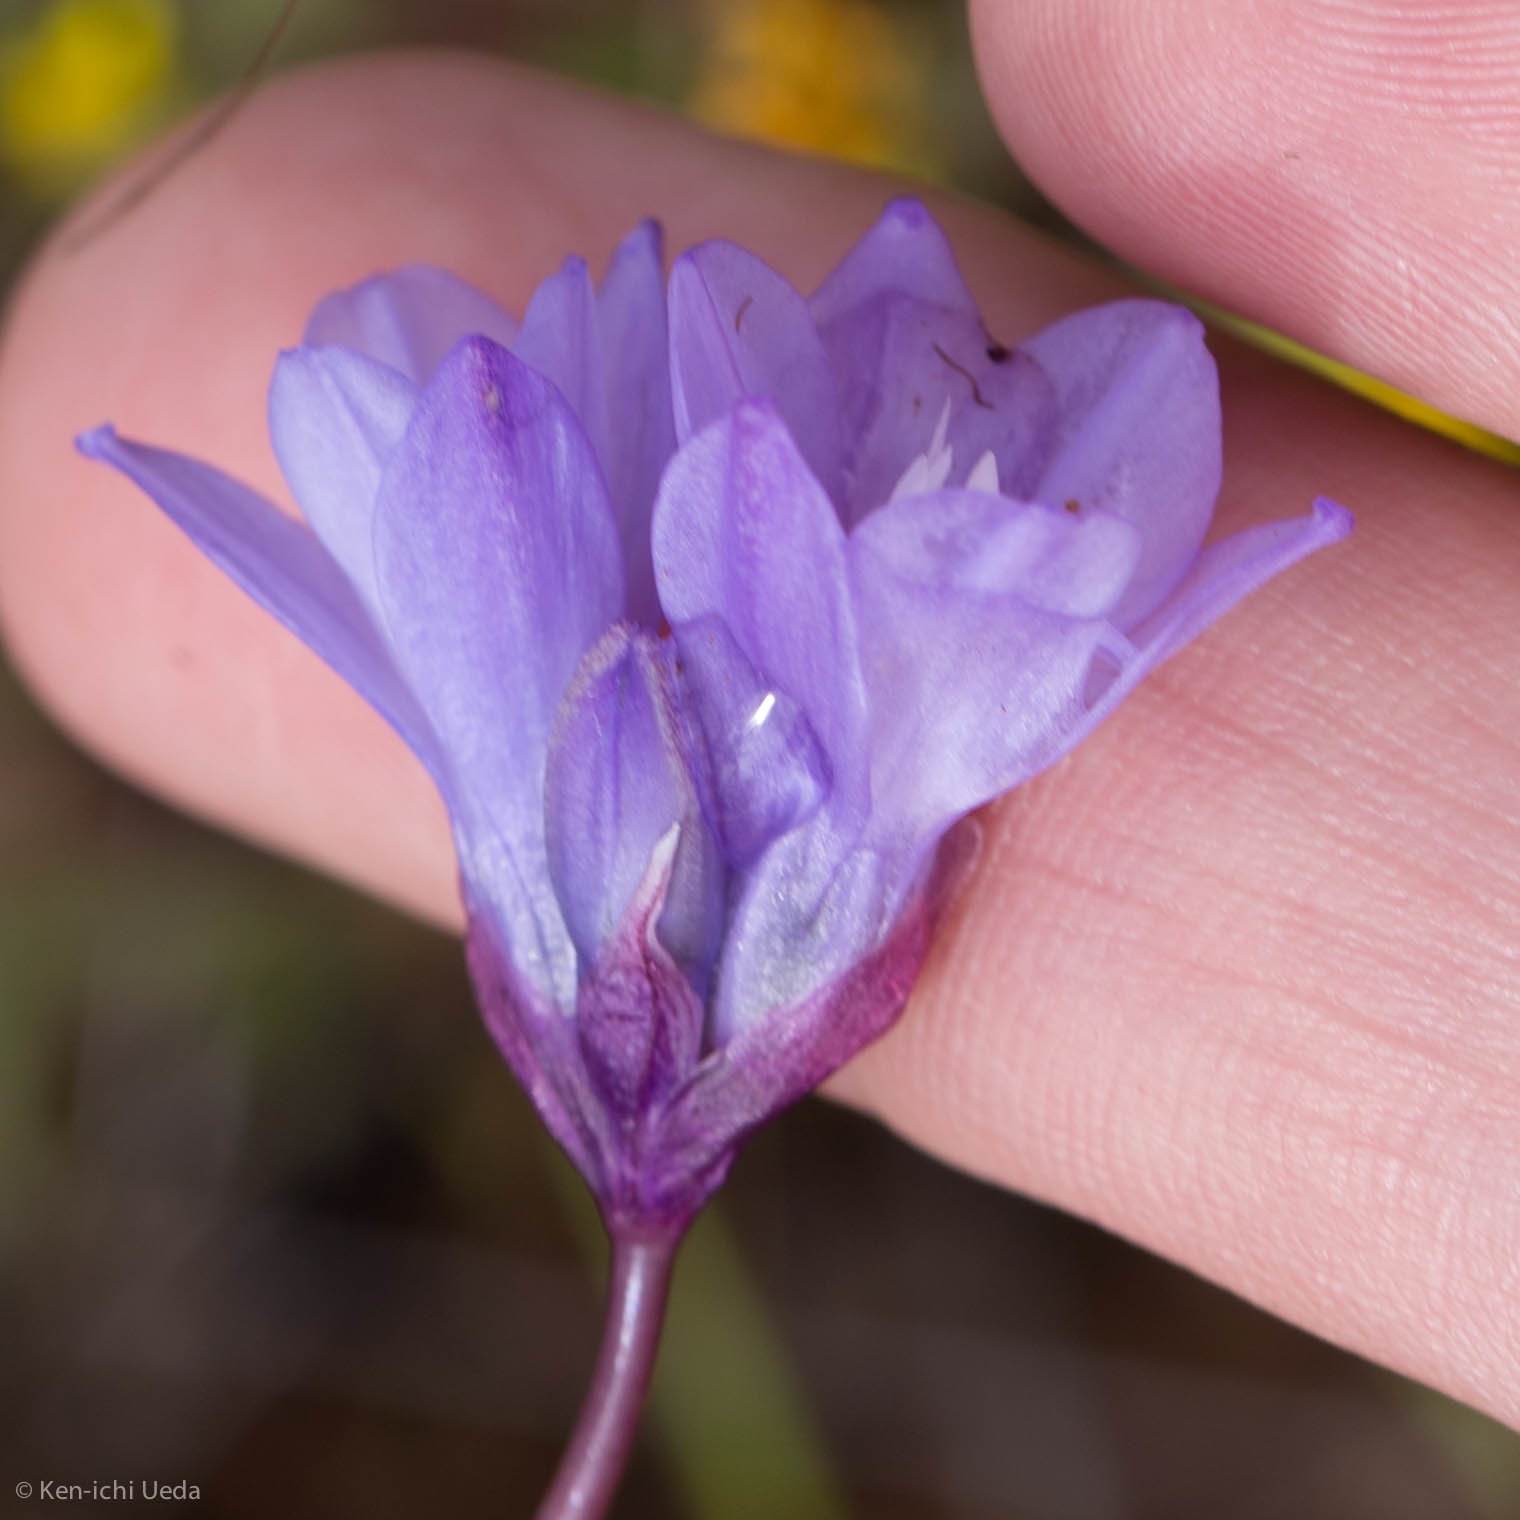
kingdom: Plantae
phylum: Tracheophyta
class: Liliopsida
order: Asparagales
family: Asparagaceae
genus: Dipterostemon
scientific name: Dipterostemon capitatus
